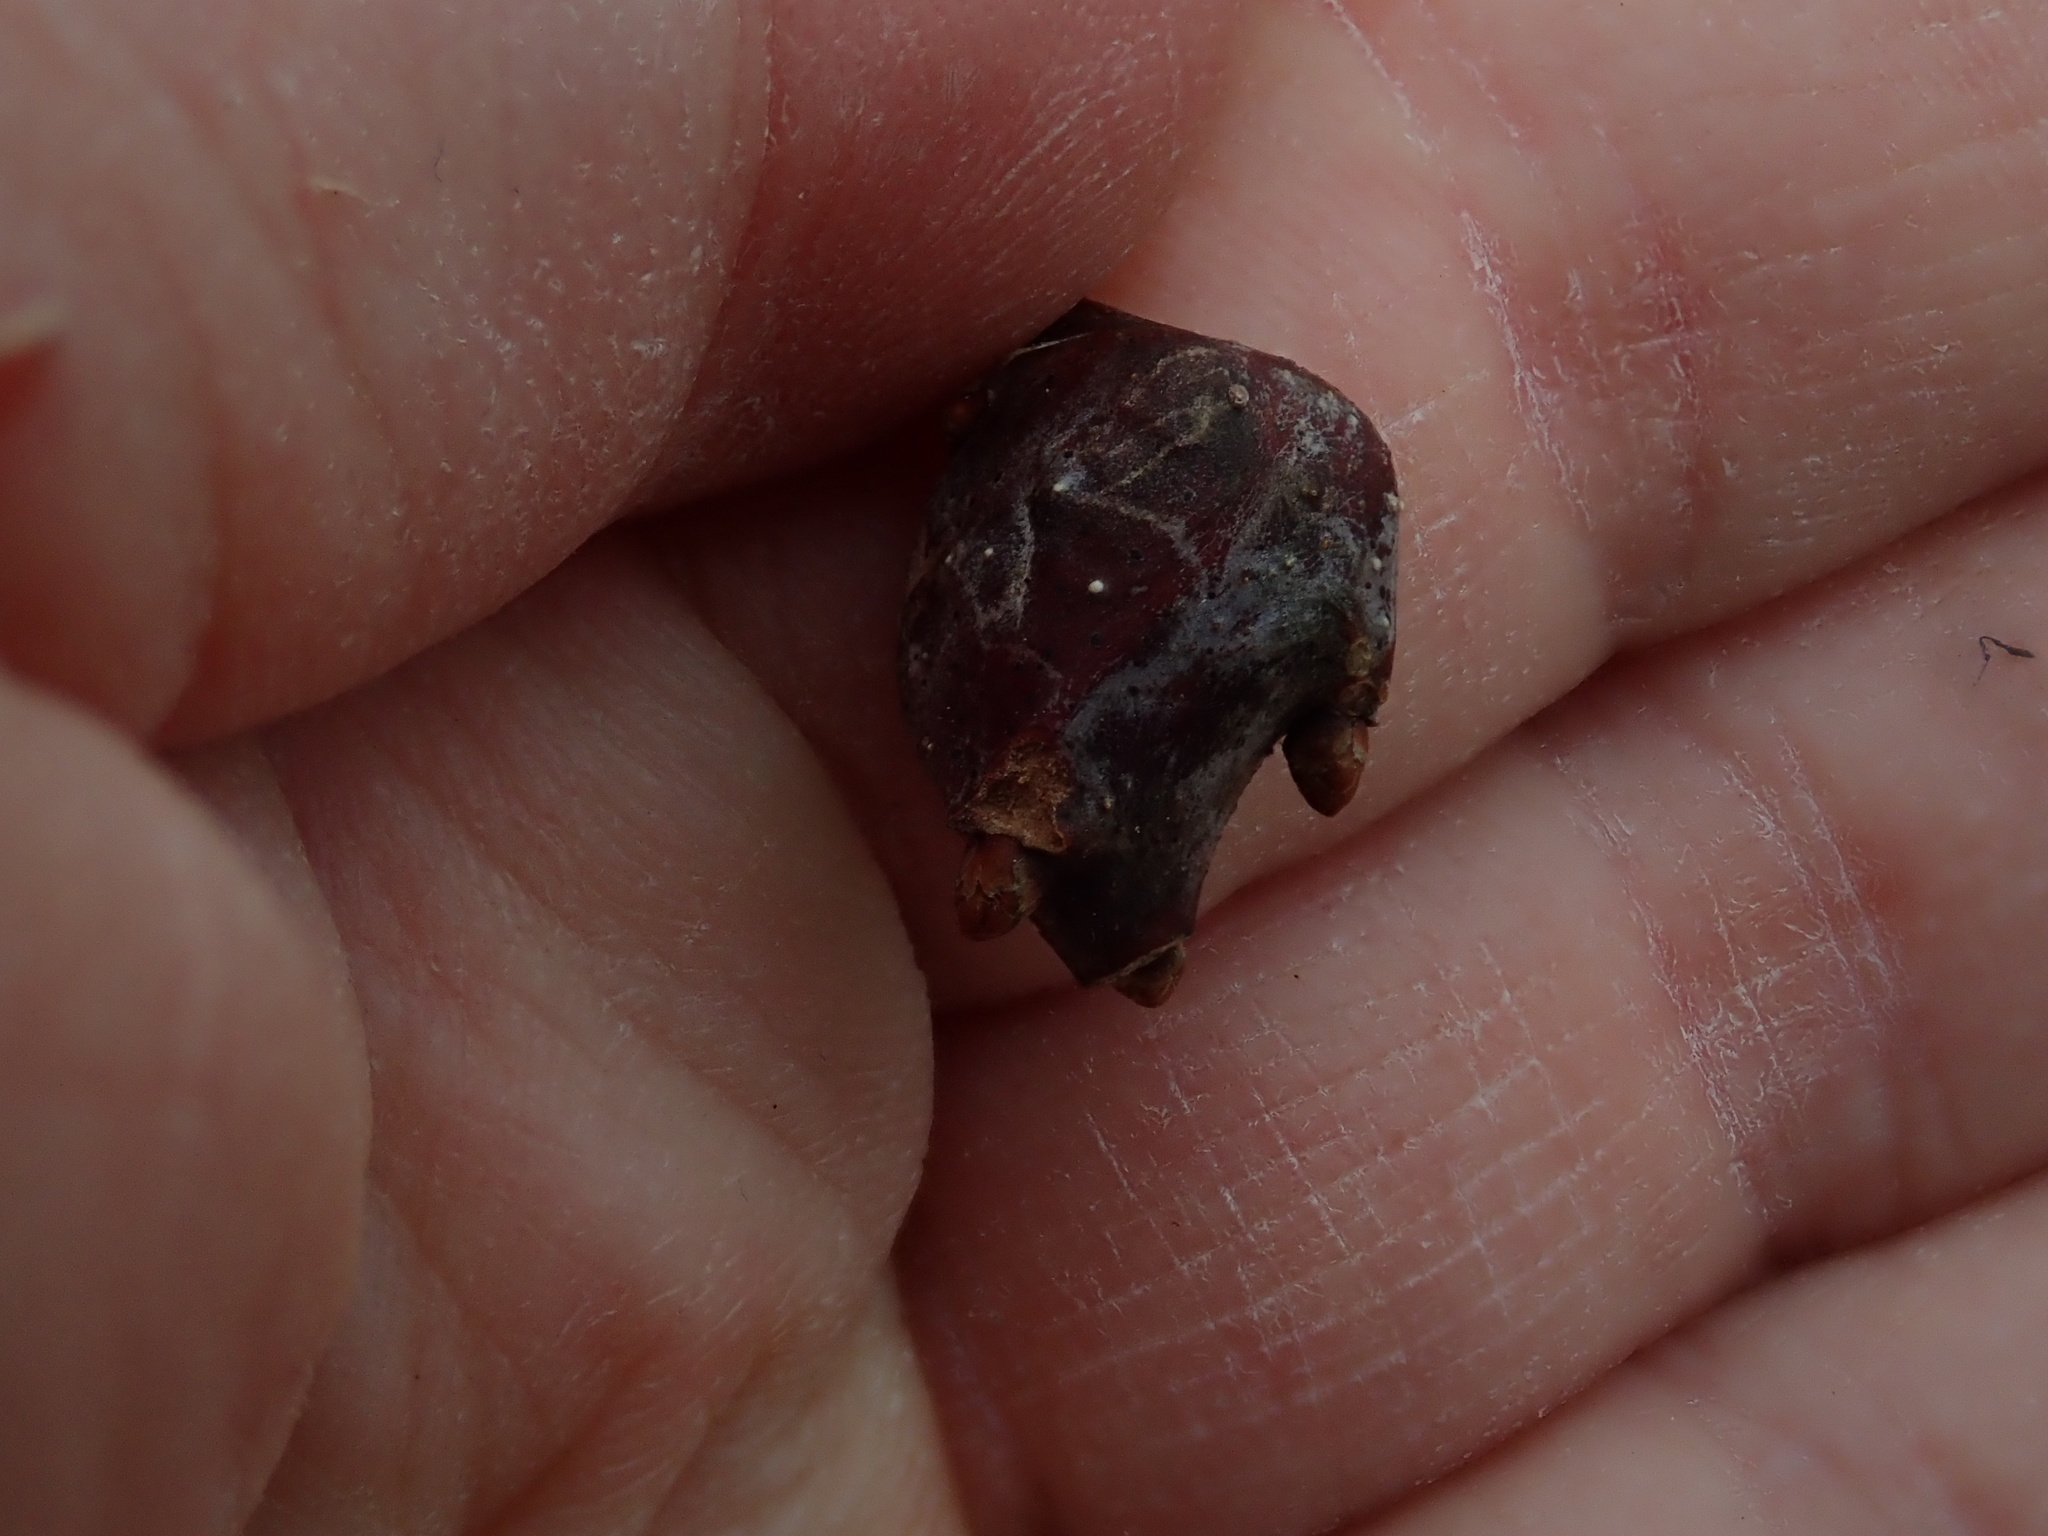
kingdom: Animalia
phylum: Arthropoda
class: Insecta
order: Hymenoptera
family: Cynipidae
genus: Callirhytis
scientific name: Callirhytis clavula
